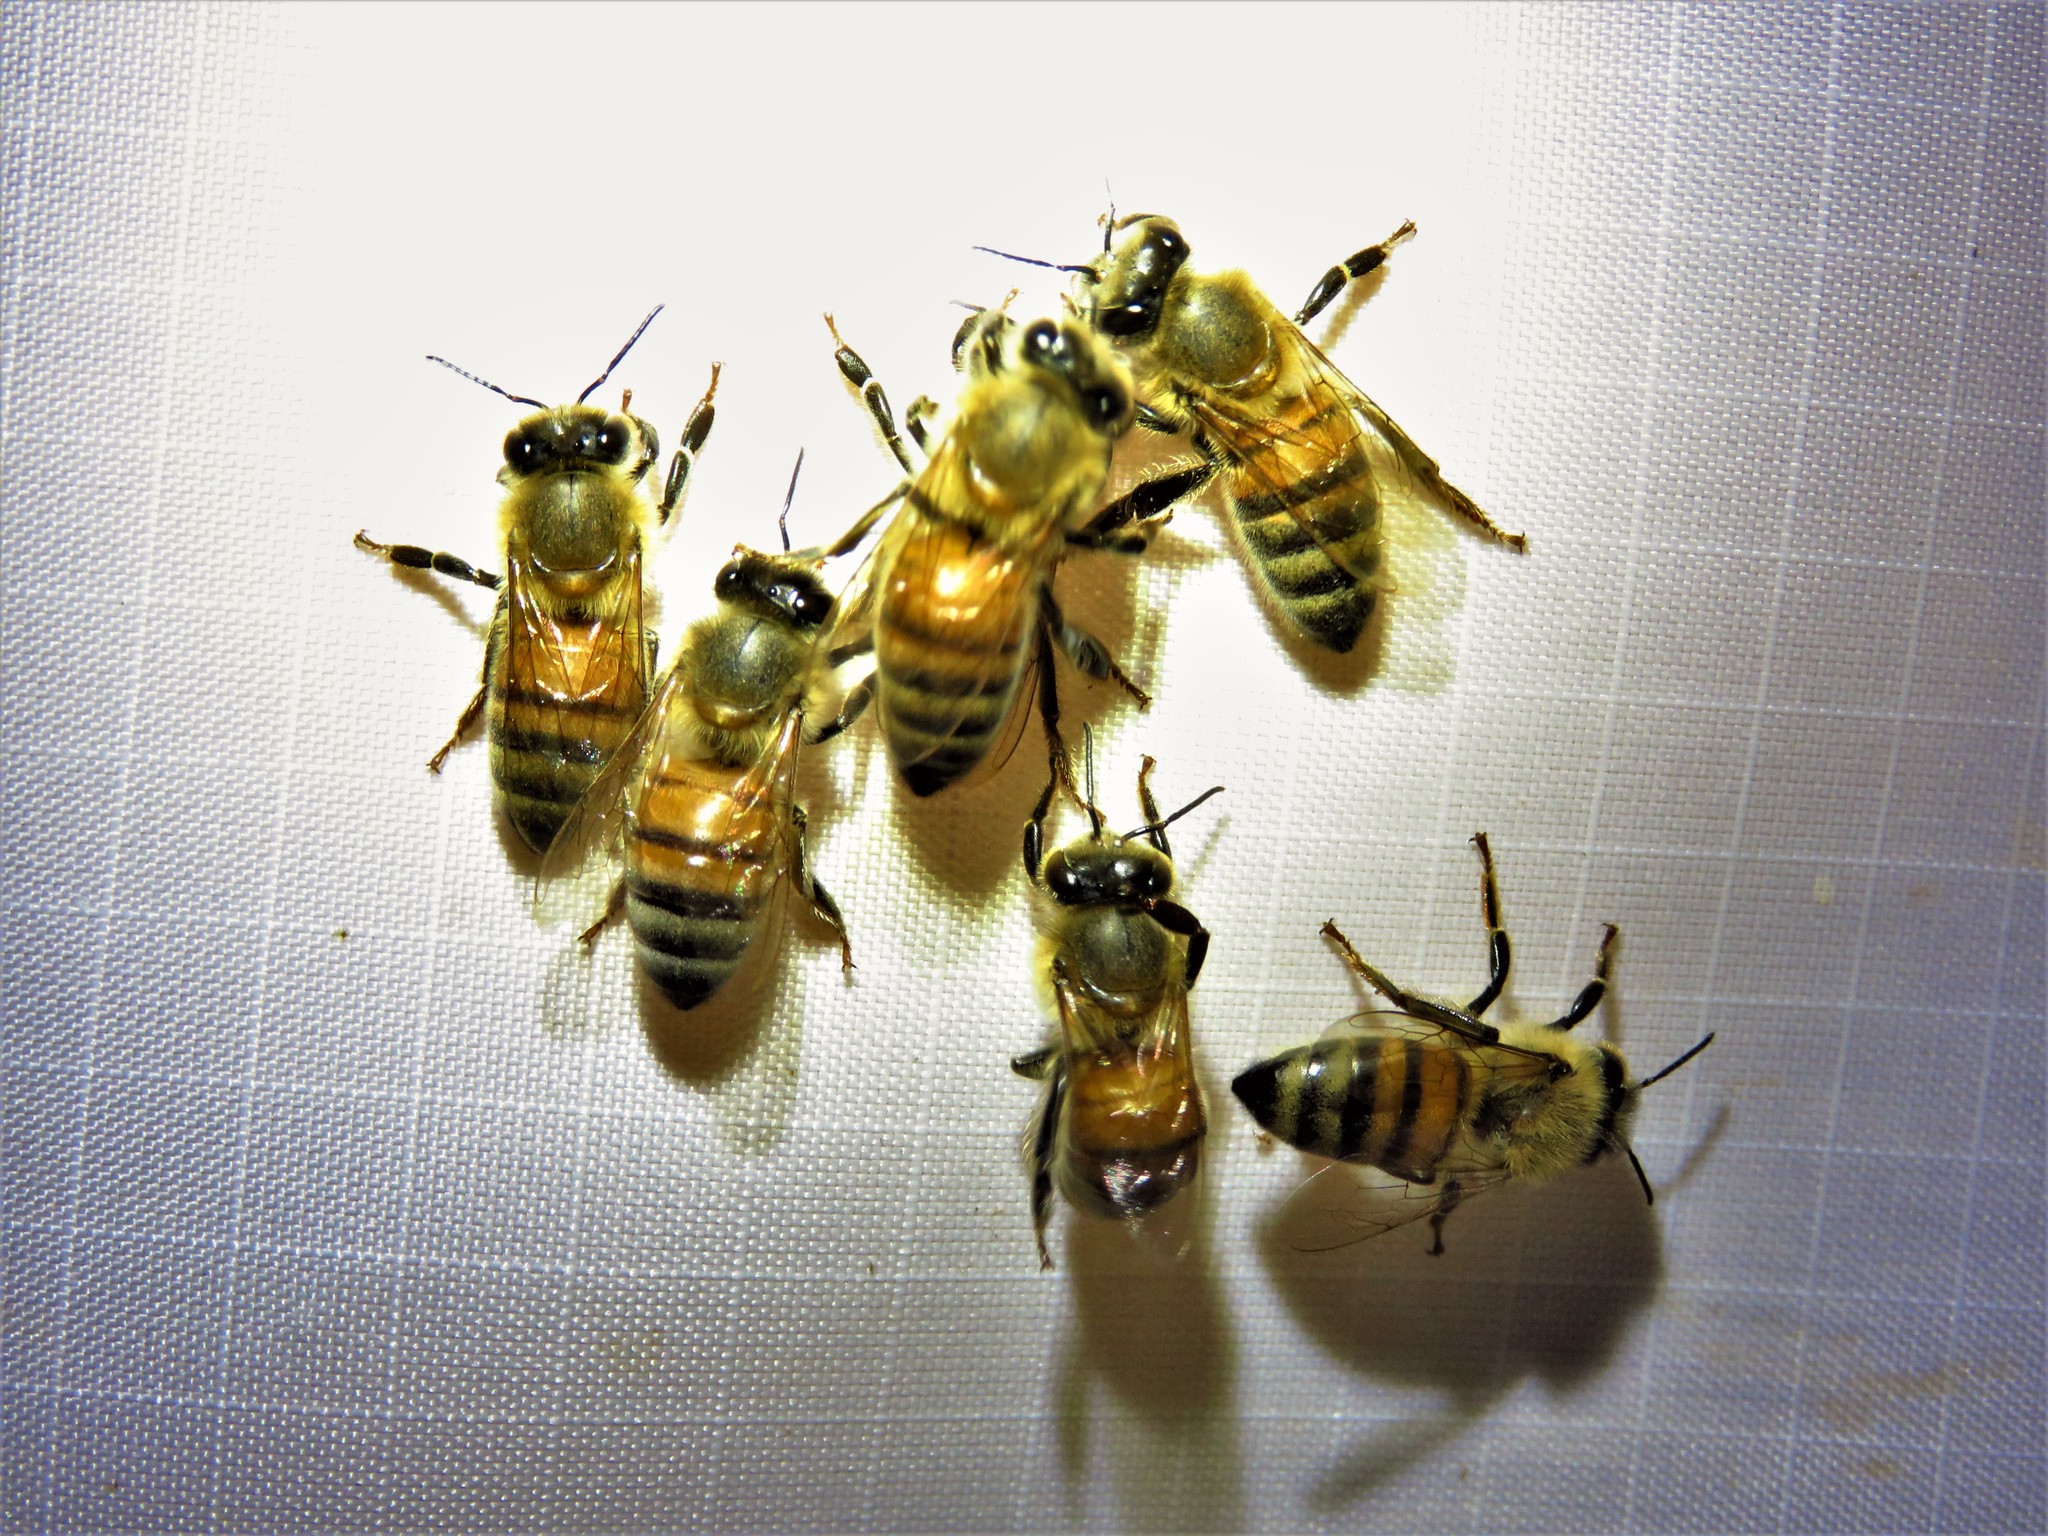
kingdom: Animalia
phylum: Arthropoda
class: Insecta
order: Hymenoptera
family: Apidae
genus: Apis
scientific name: Apis mellifera
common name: Honey bee
